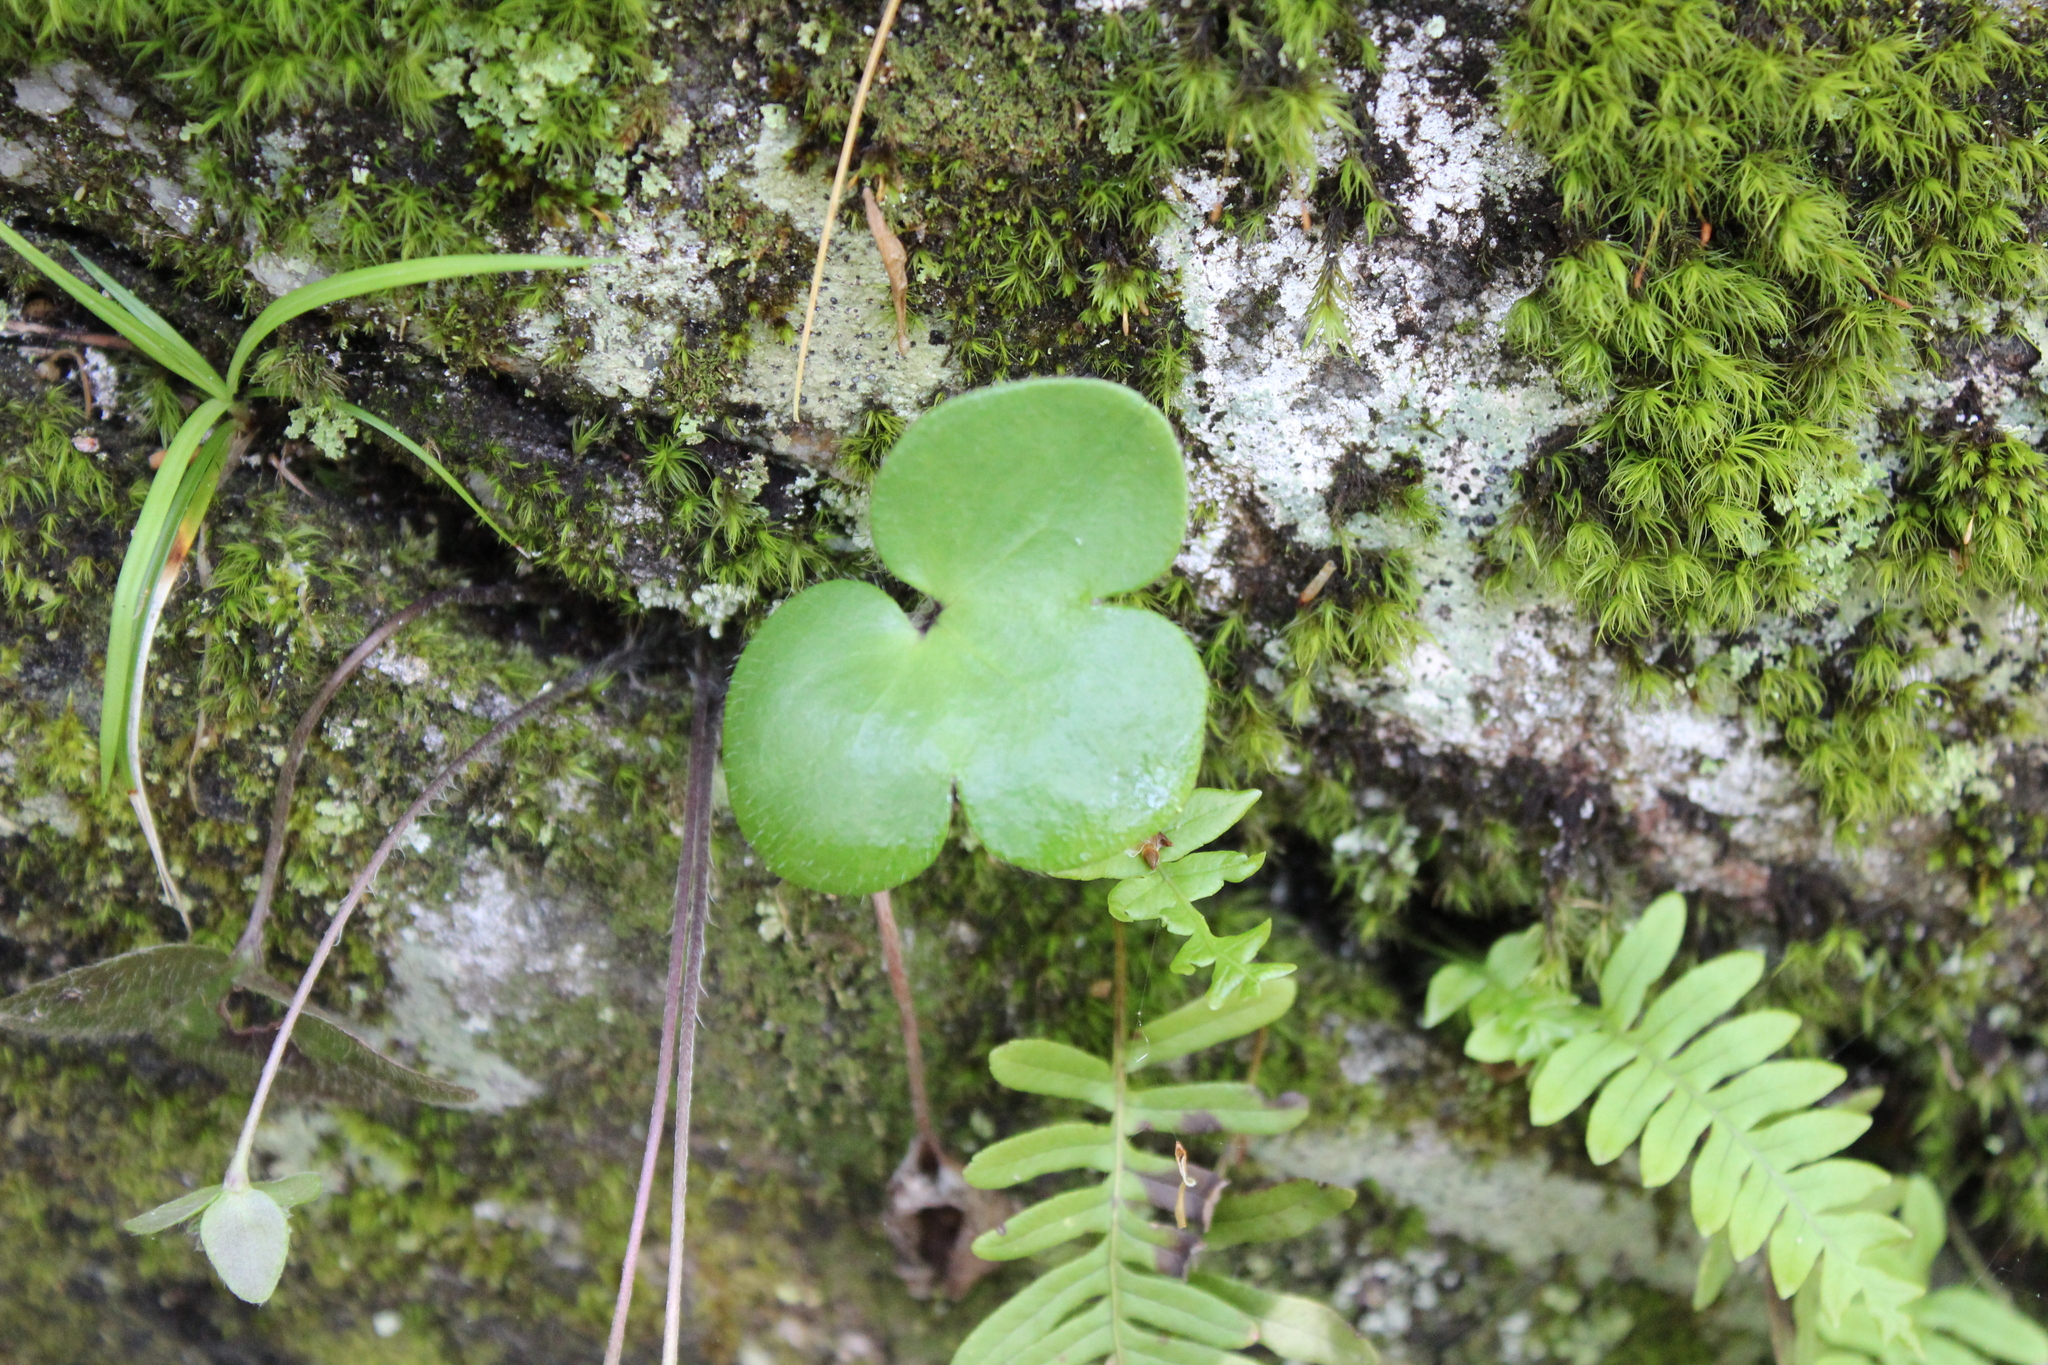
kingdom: Plantae
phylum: Tracheophyta
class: Magnoliopsida
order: Ranunculales
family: Ranunculaceae
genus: Hepatica
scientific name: Hepatica americana
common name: American hepatica
